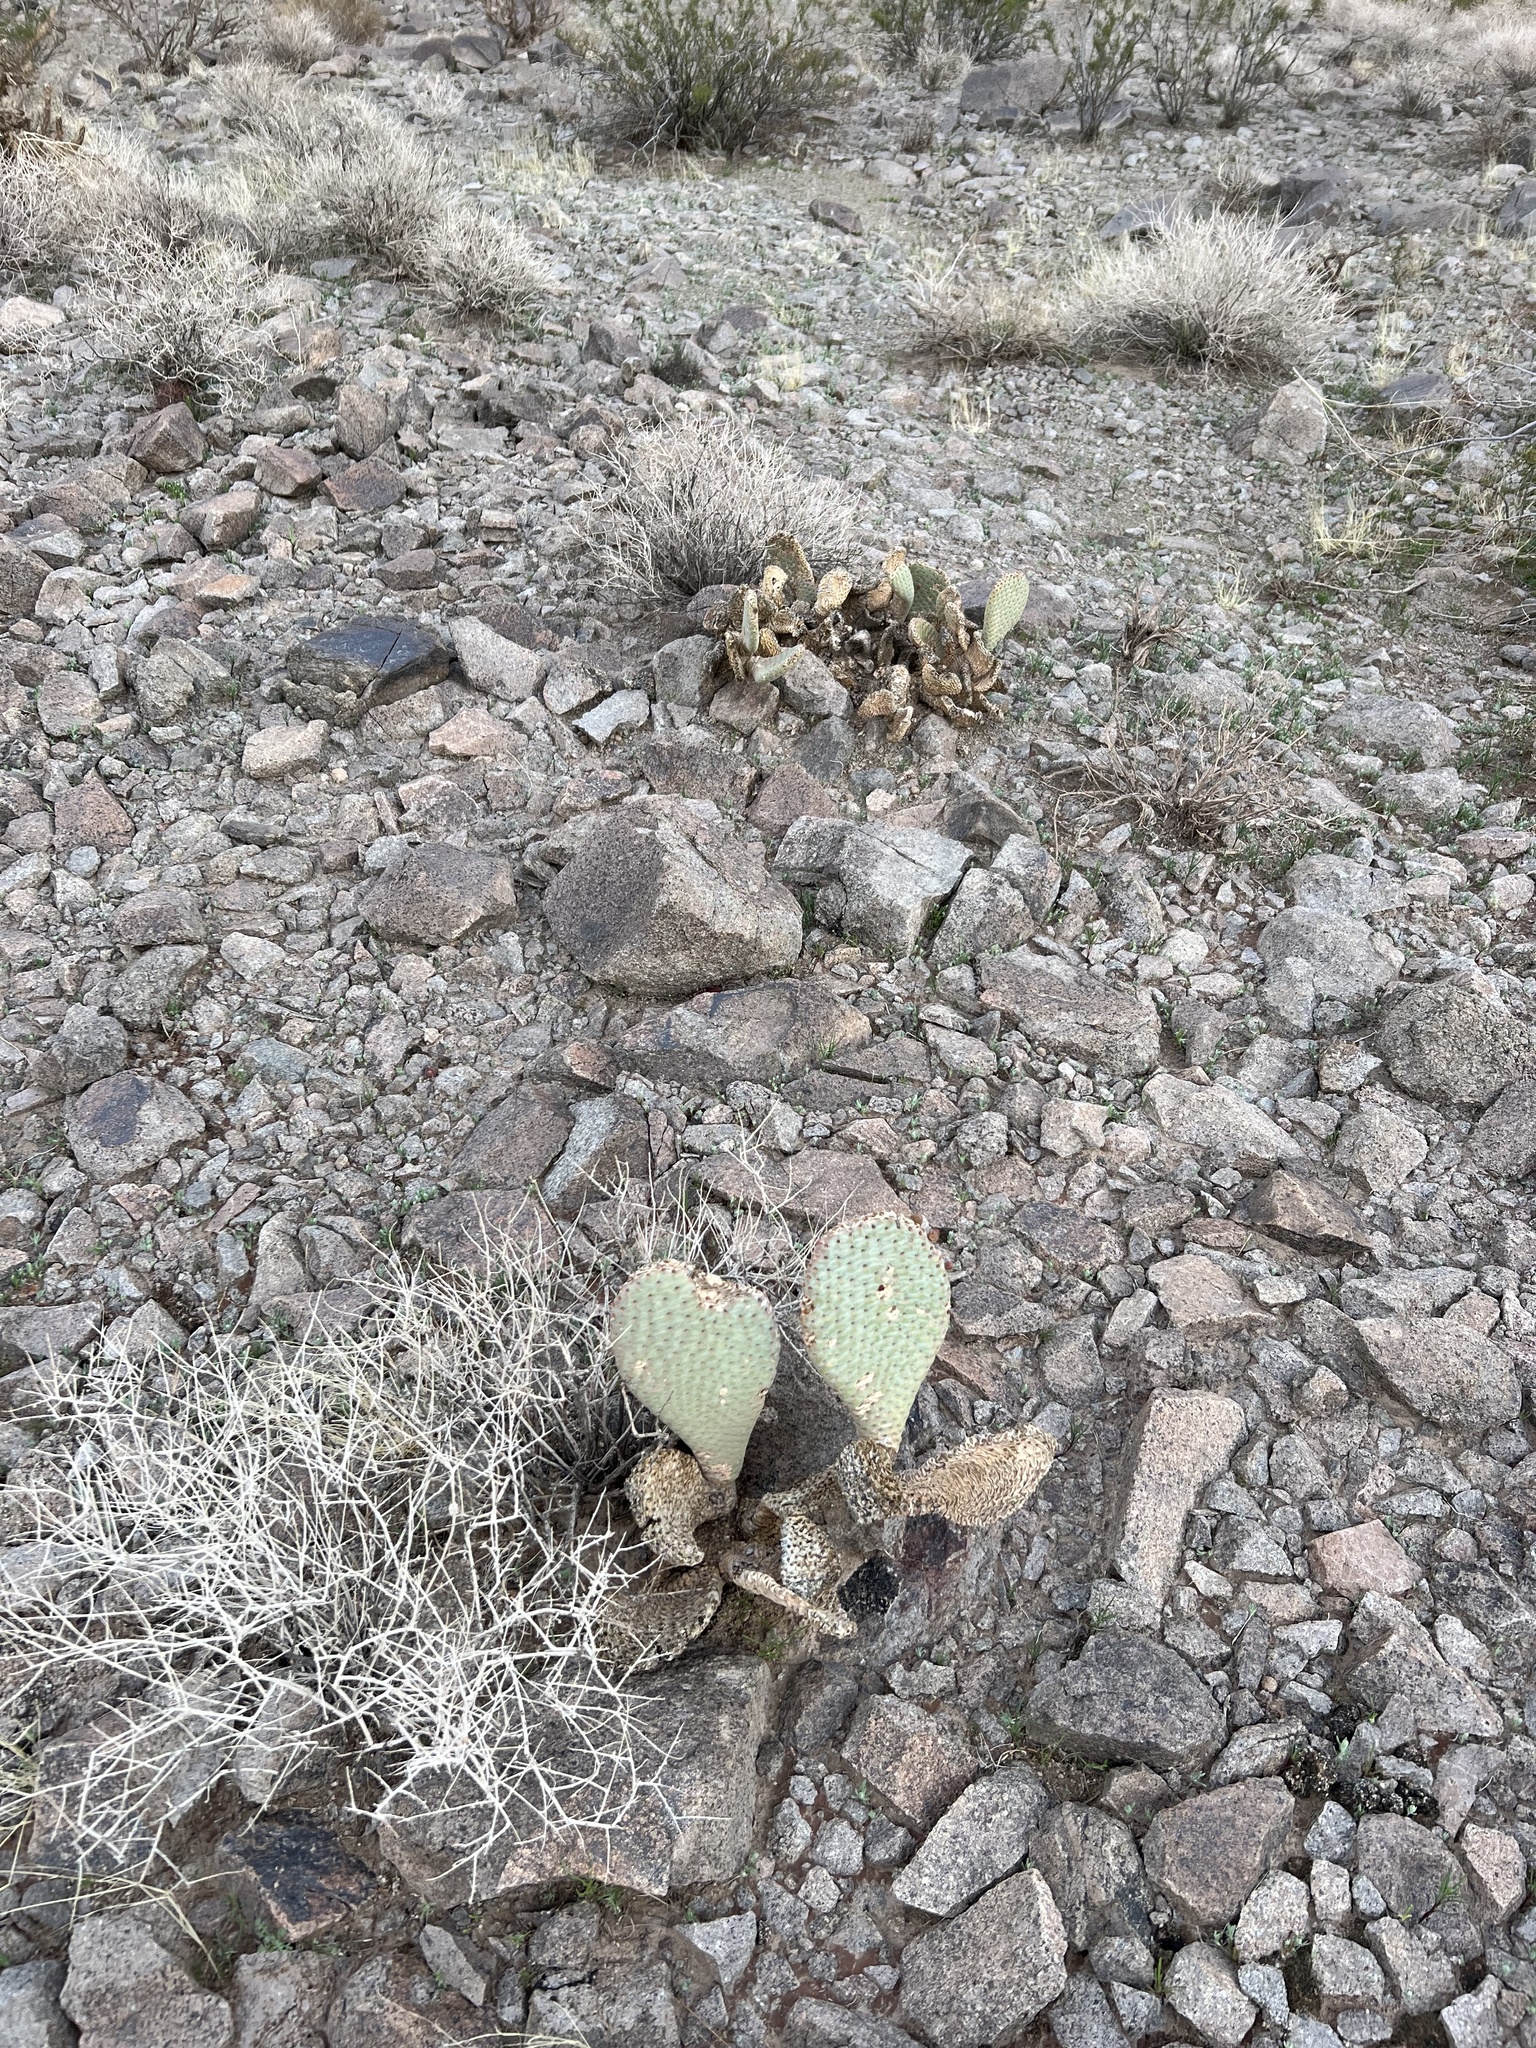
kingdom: Plantae
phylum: Tracheophyta
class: Magnoliopsida
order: Caryophyllales
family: Cactaceae
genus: Opuntia
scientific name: Opuntia basilaris
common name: Beavertail prickly-pear
